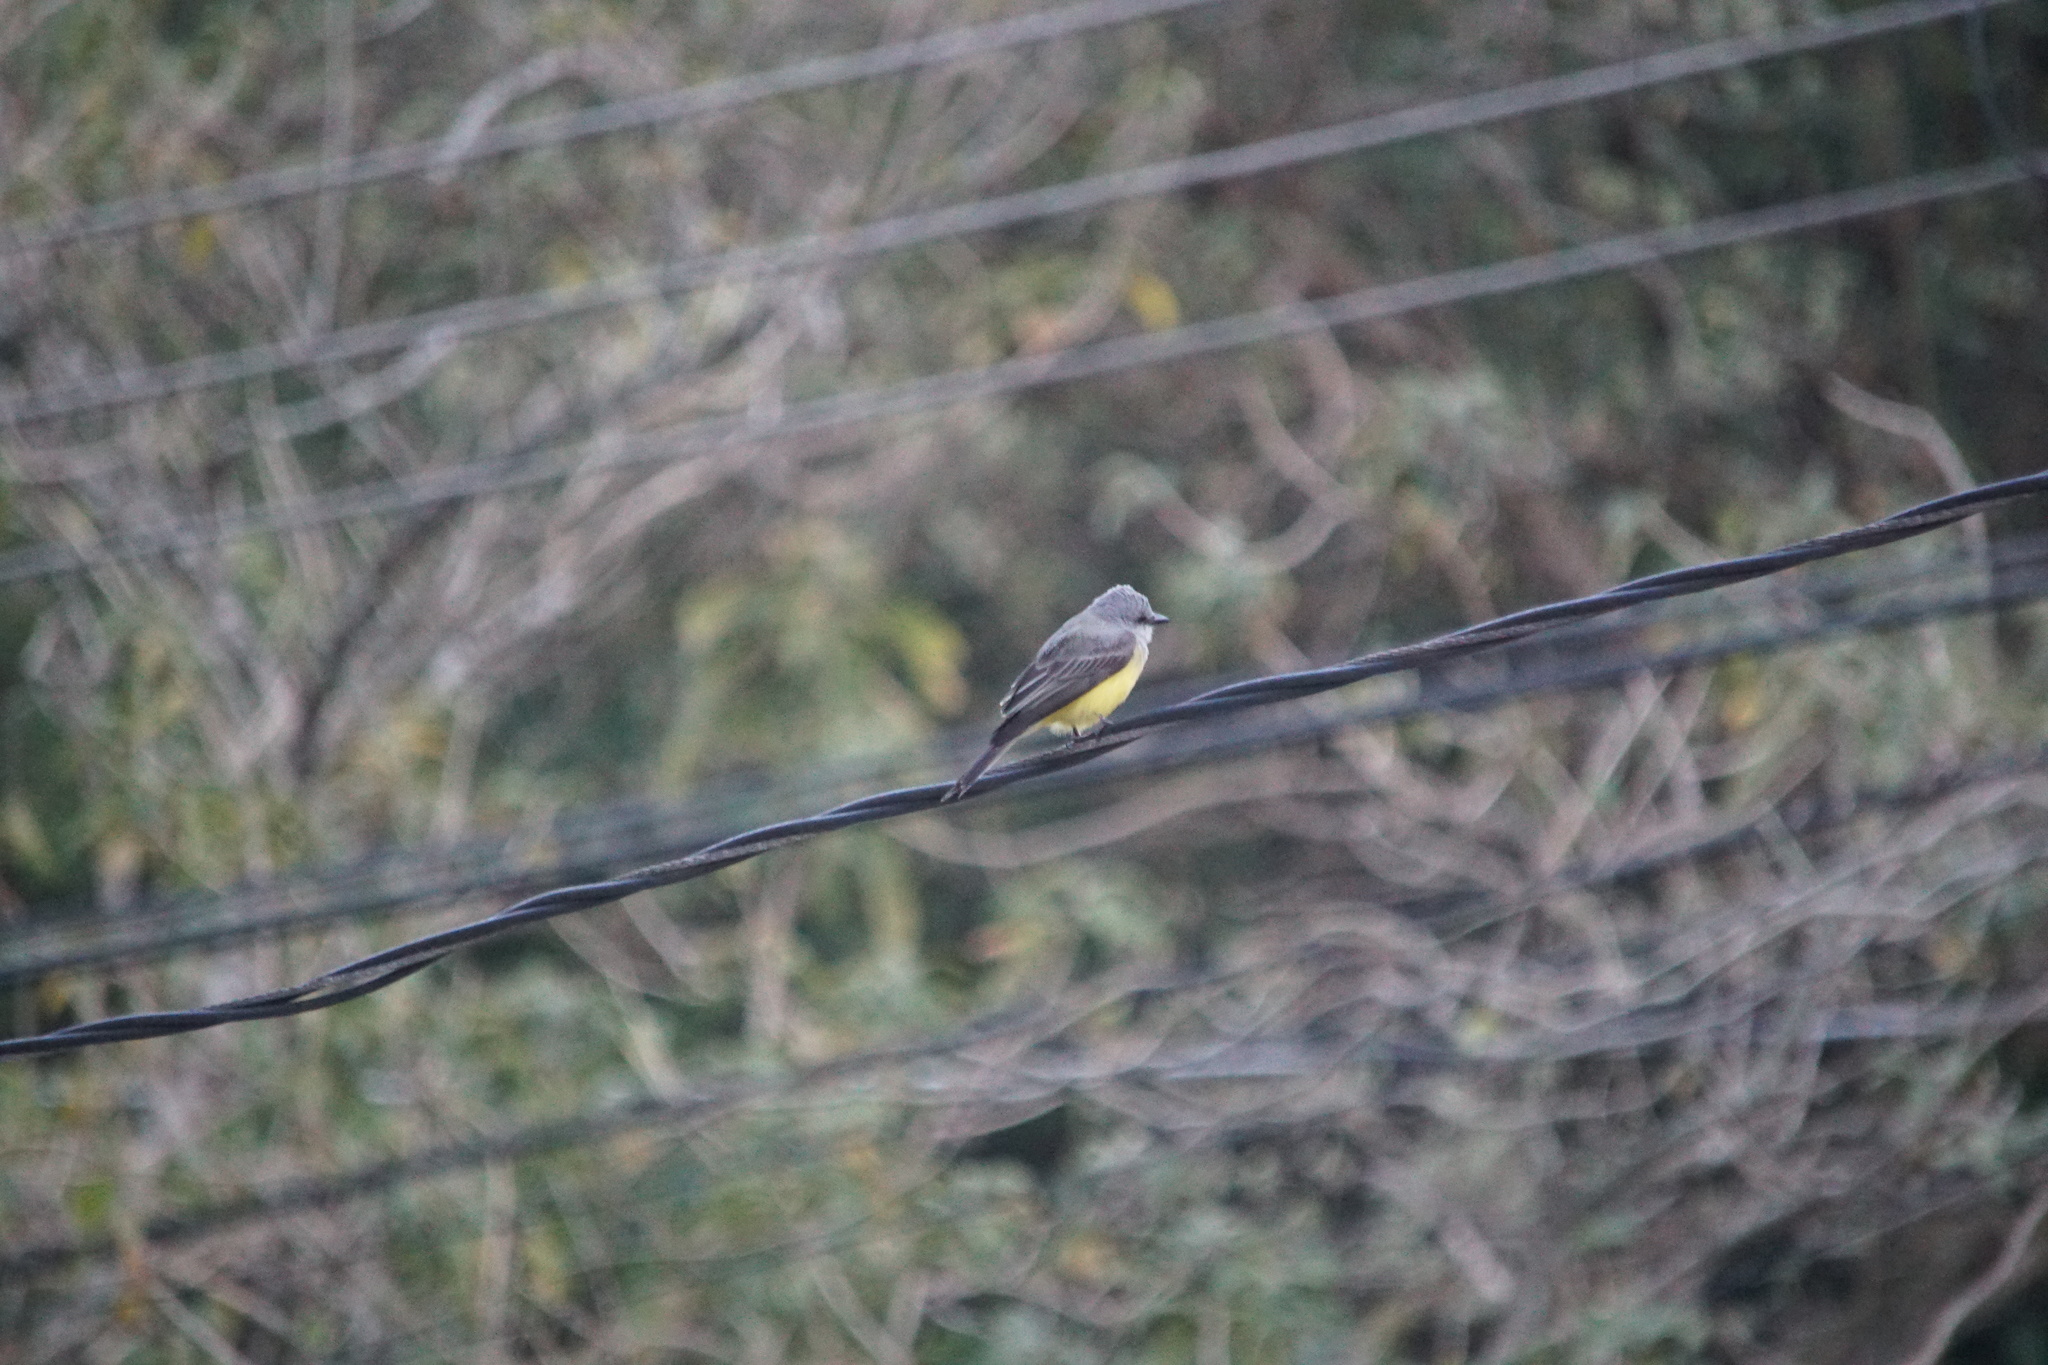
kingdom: Animalia
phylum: Chordata
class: Aves
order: Passeriformes
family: Tyrannidae
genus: Tyrannus
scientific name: Tyrannus melancholicus
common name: Tropical kingbird
